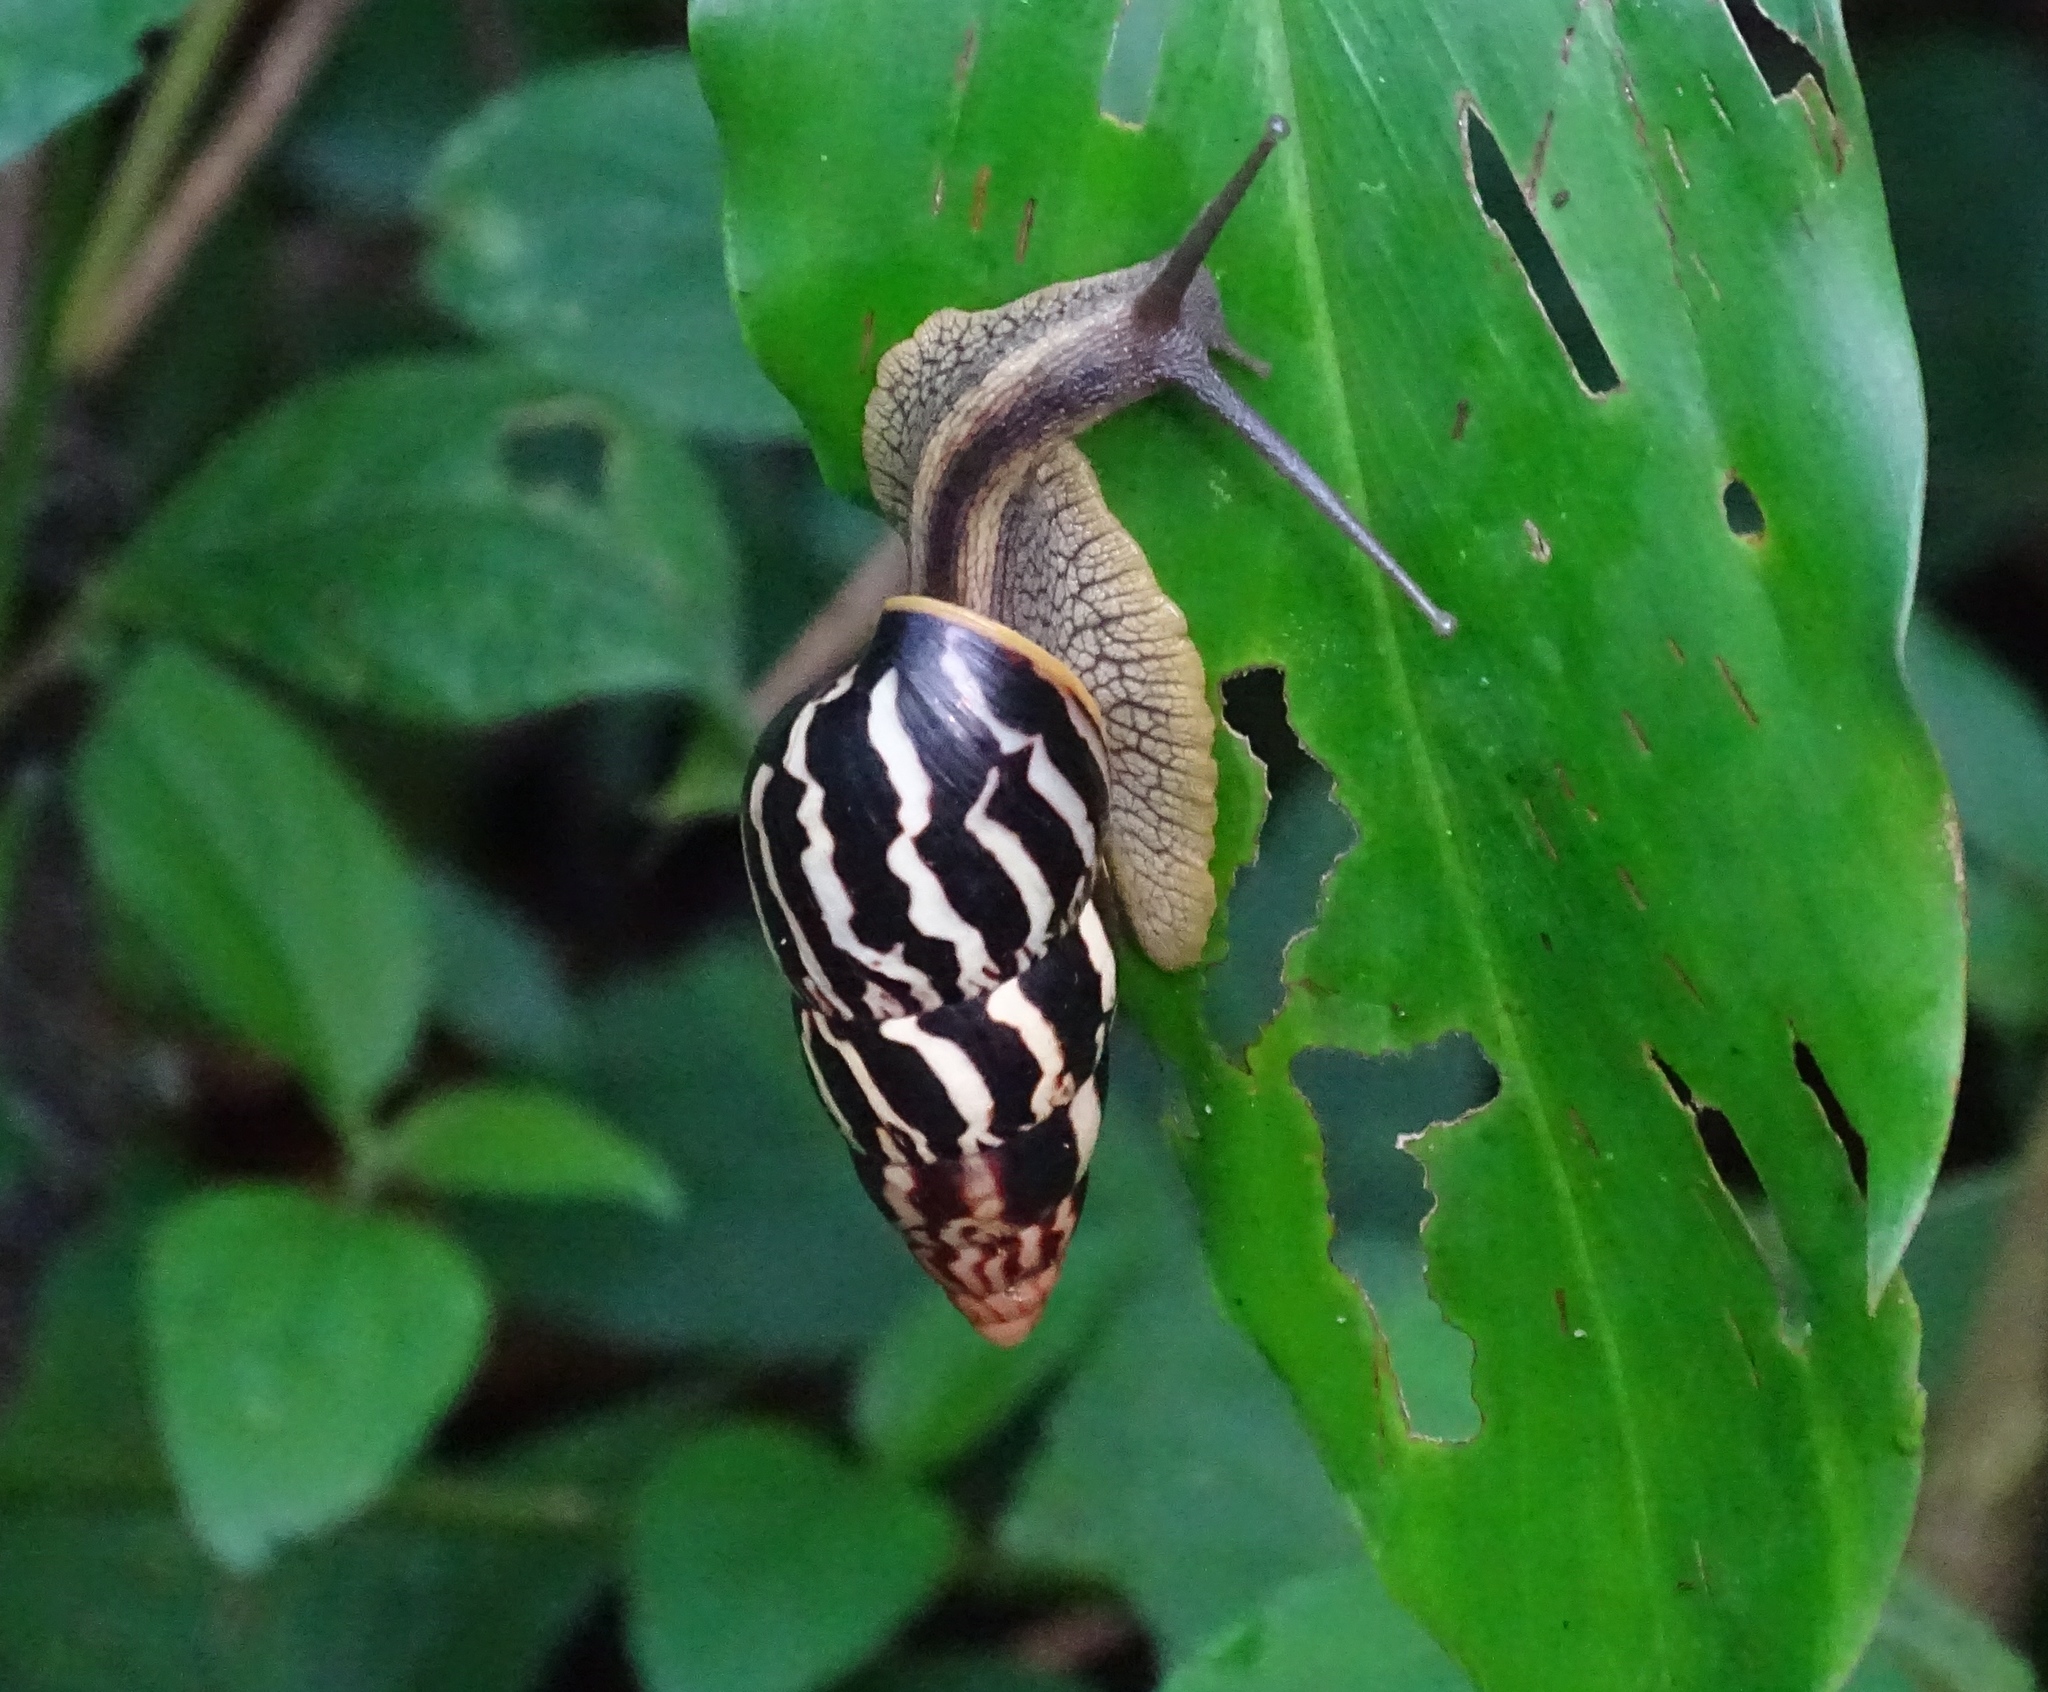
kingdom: Animalia
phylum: Mollusca
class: Gastropoda
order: Stylommatophora
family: Achatinidae
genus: Limicolaria
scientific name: Limicolaria
